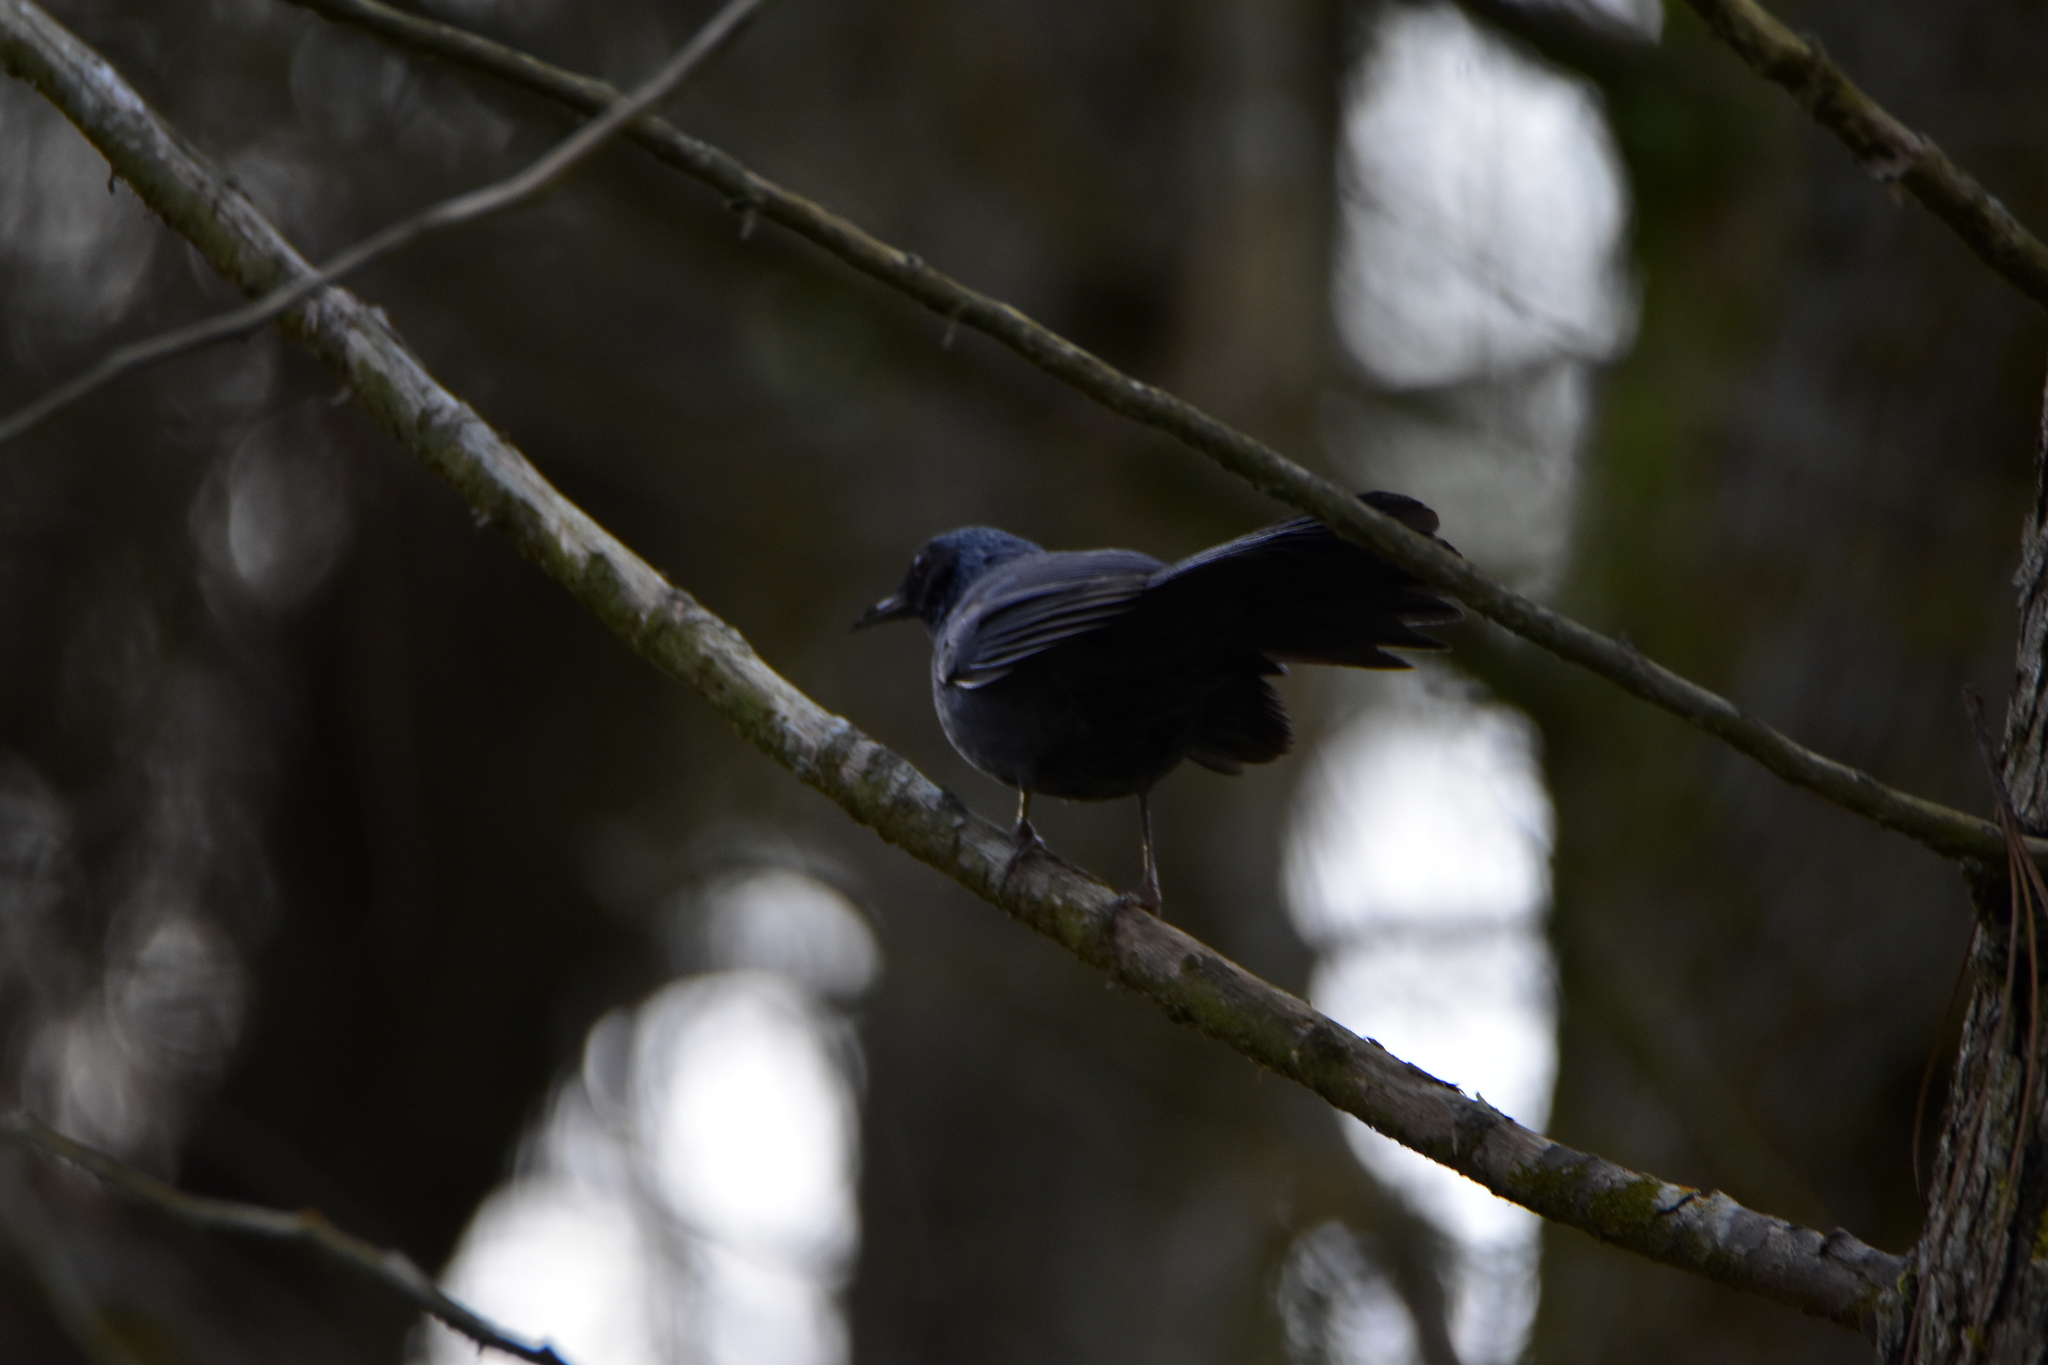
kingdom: Animalia
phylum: Chordata
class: Aves
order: Passeriformes
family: Mimidae
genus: Melanotis
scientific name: Melanotis caerulescens
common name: Blue mockingbird
